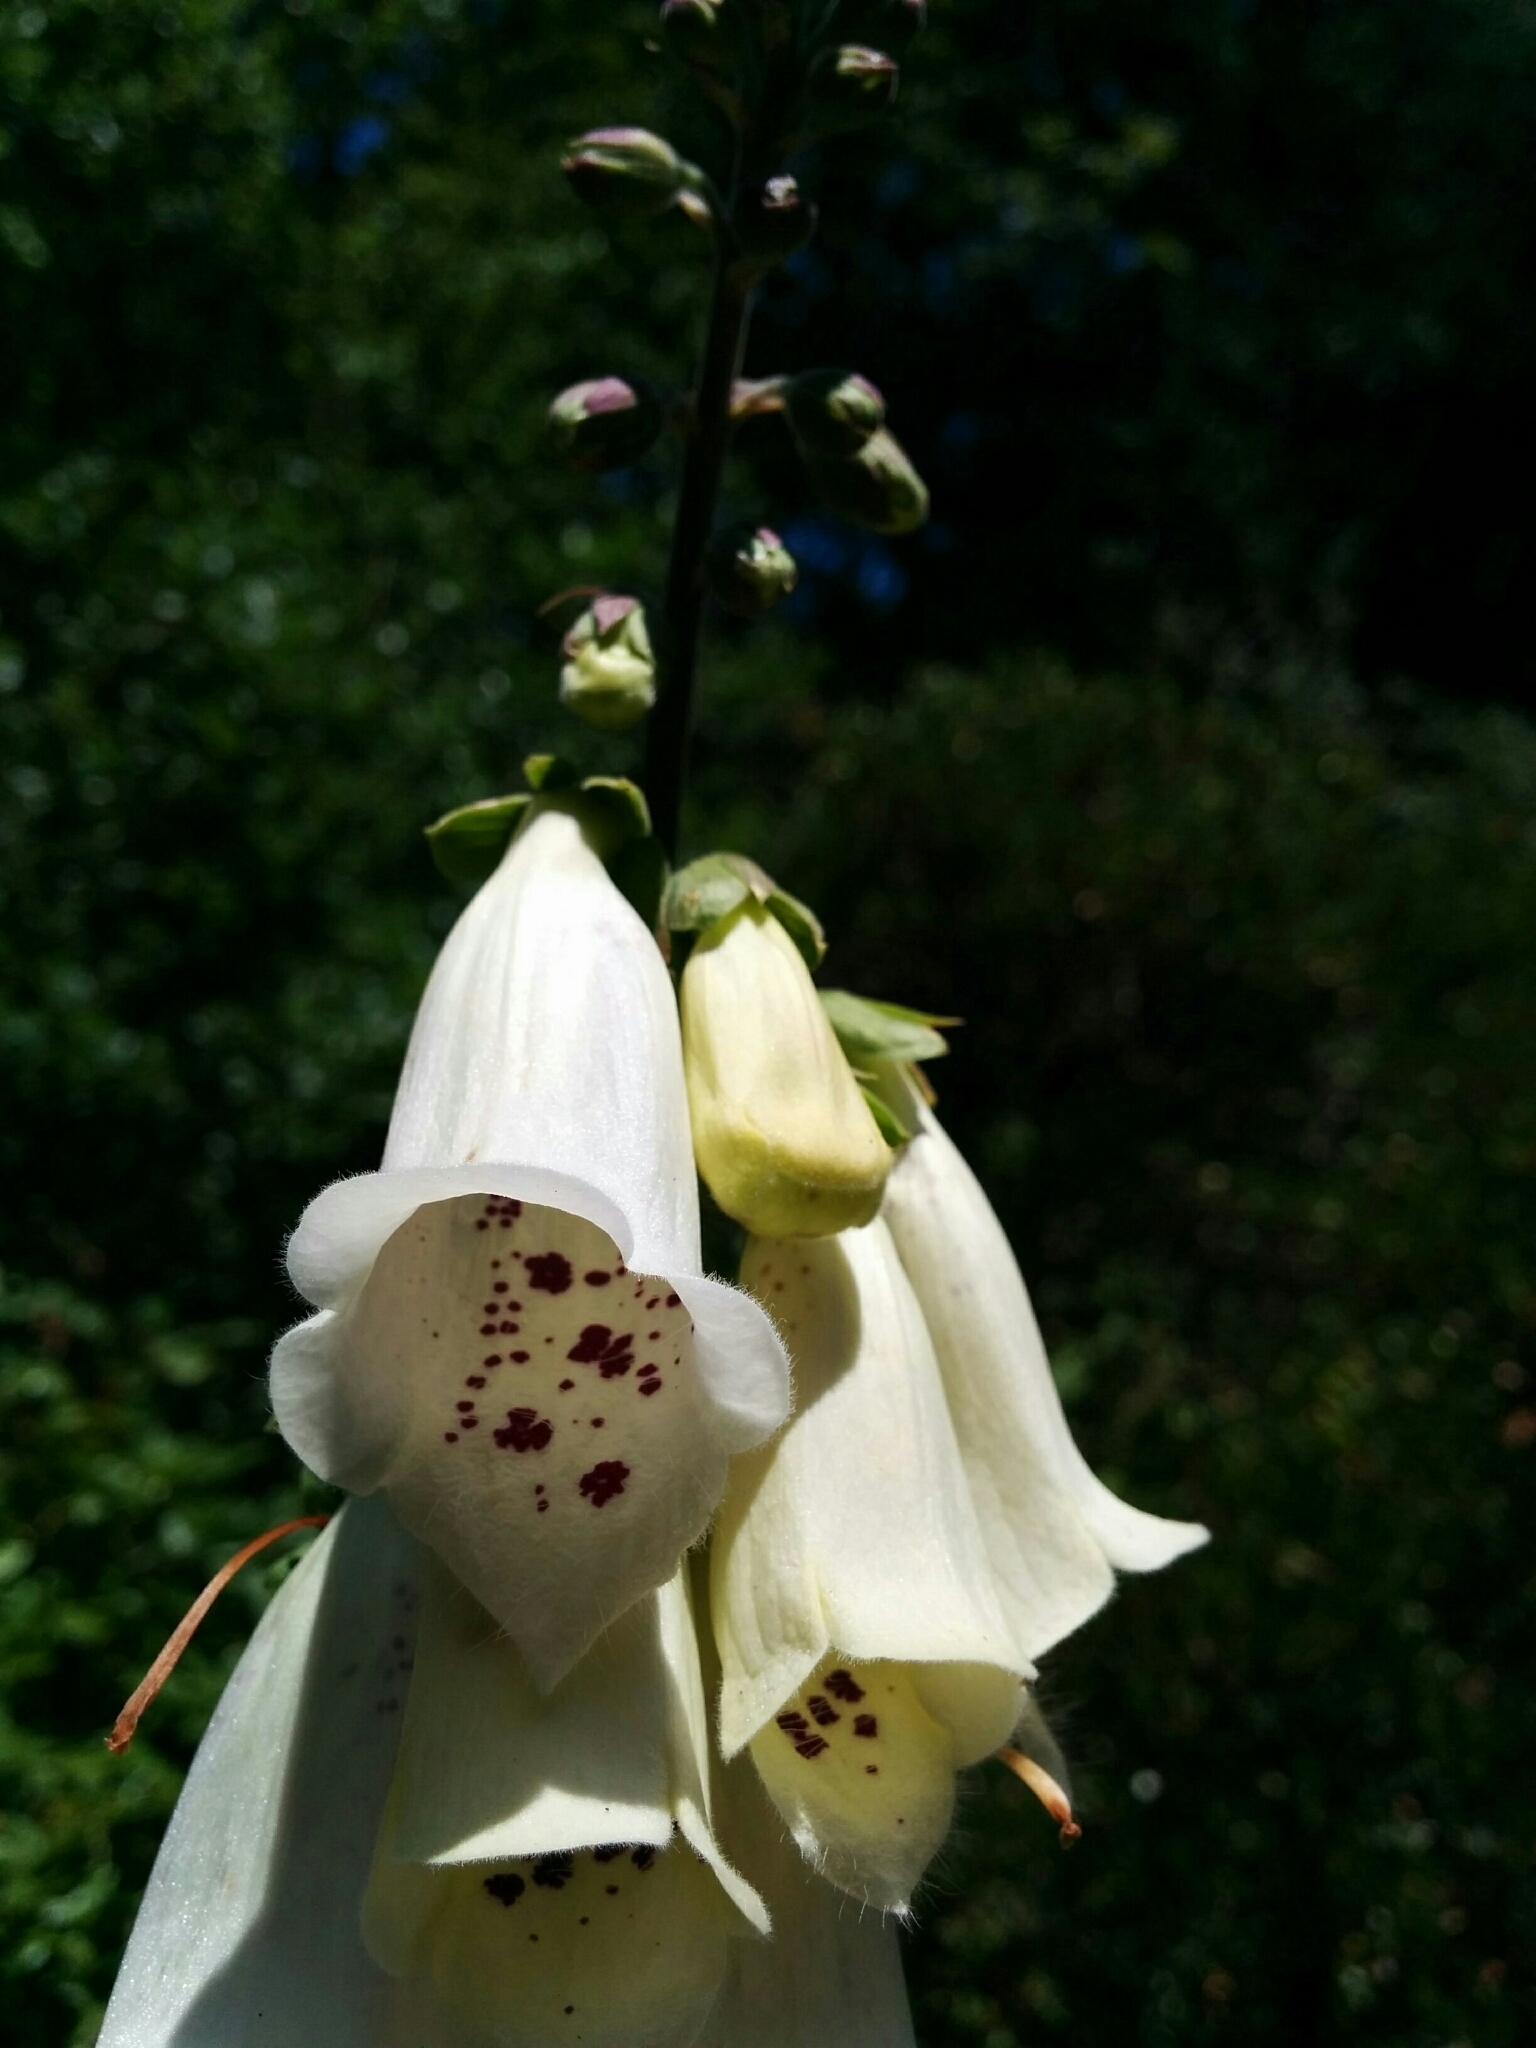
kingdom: Plantae
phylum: Tracheophyta
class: Magnoliopsida
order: Lamiales
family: Plantaginaceae
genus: Digitalis
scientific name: Digitalis purpurea
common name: Foxglove
